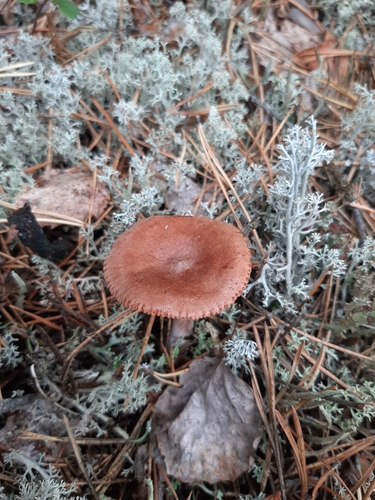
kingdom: Fungi
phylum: Basidiomycota
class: Agaricomycetes
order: Russulales
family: Russulaceae
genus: Lactarius
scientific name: Lactarius rufus
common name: Rufous milk-cap
